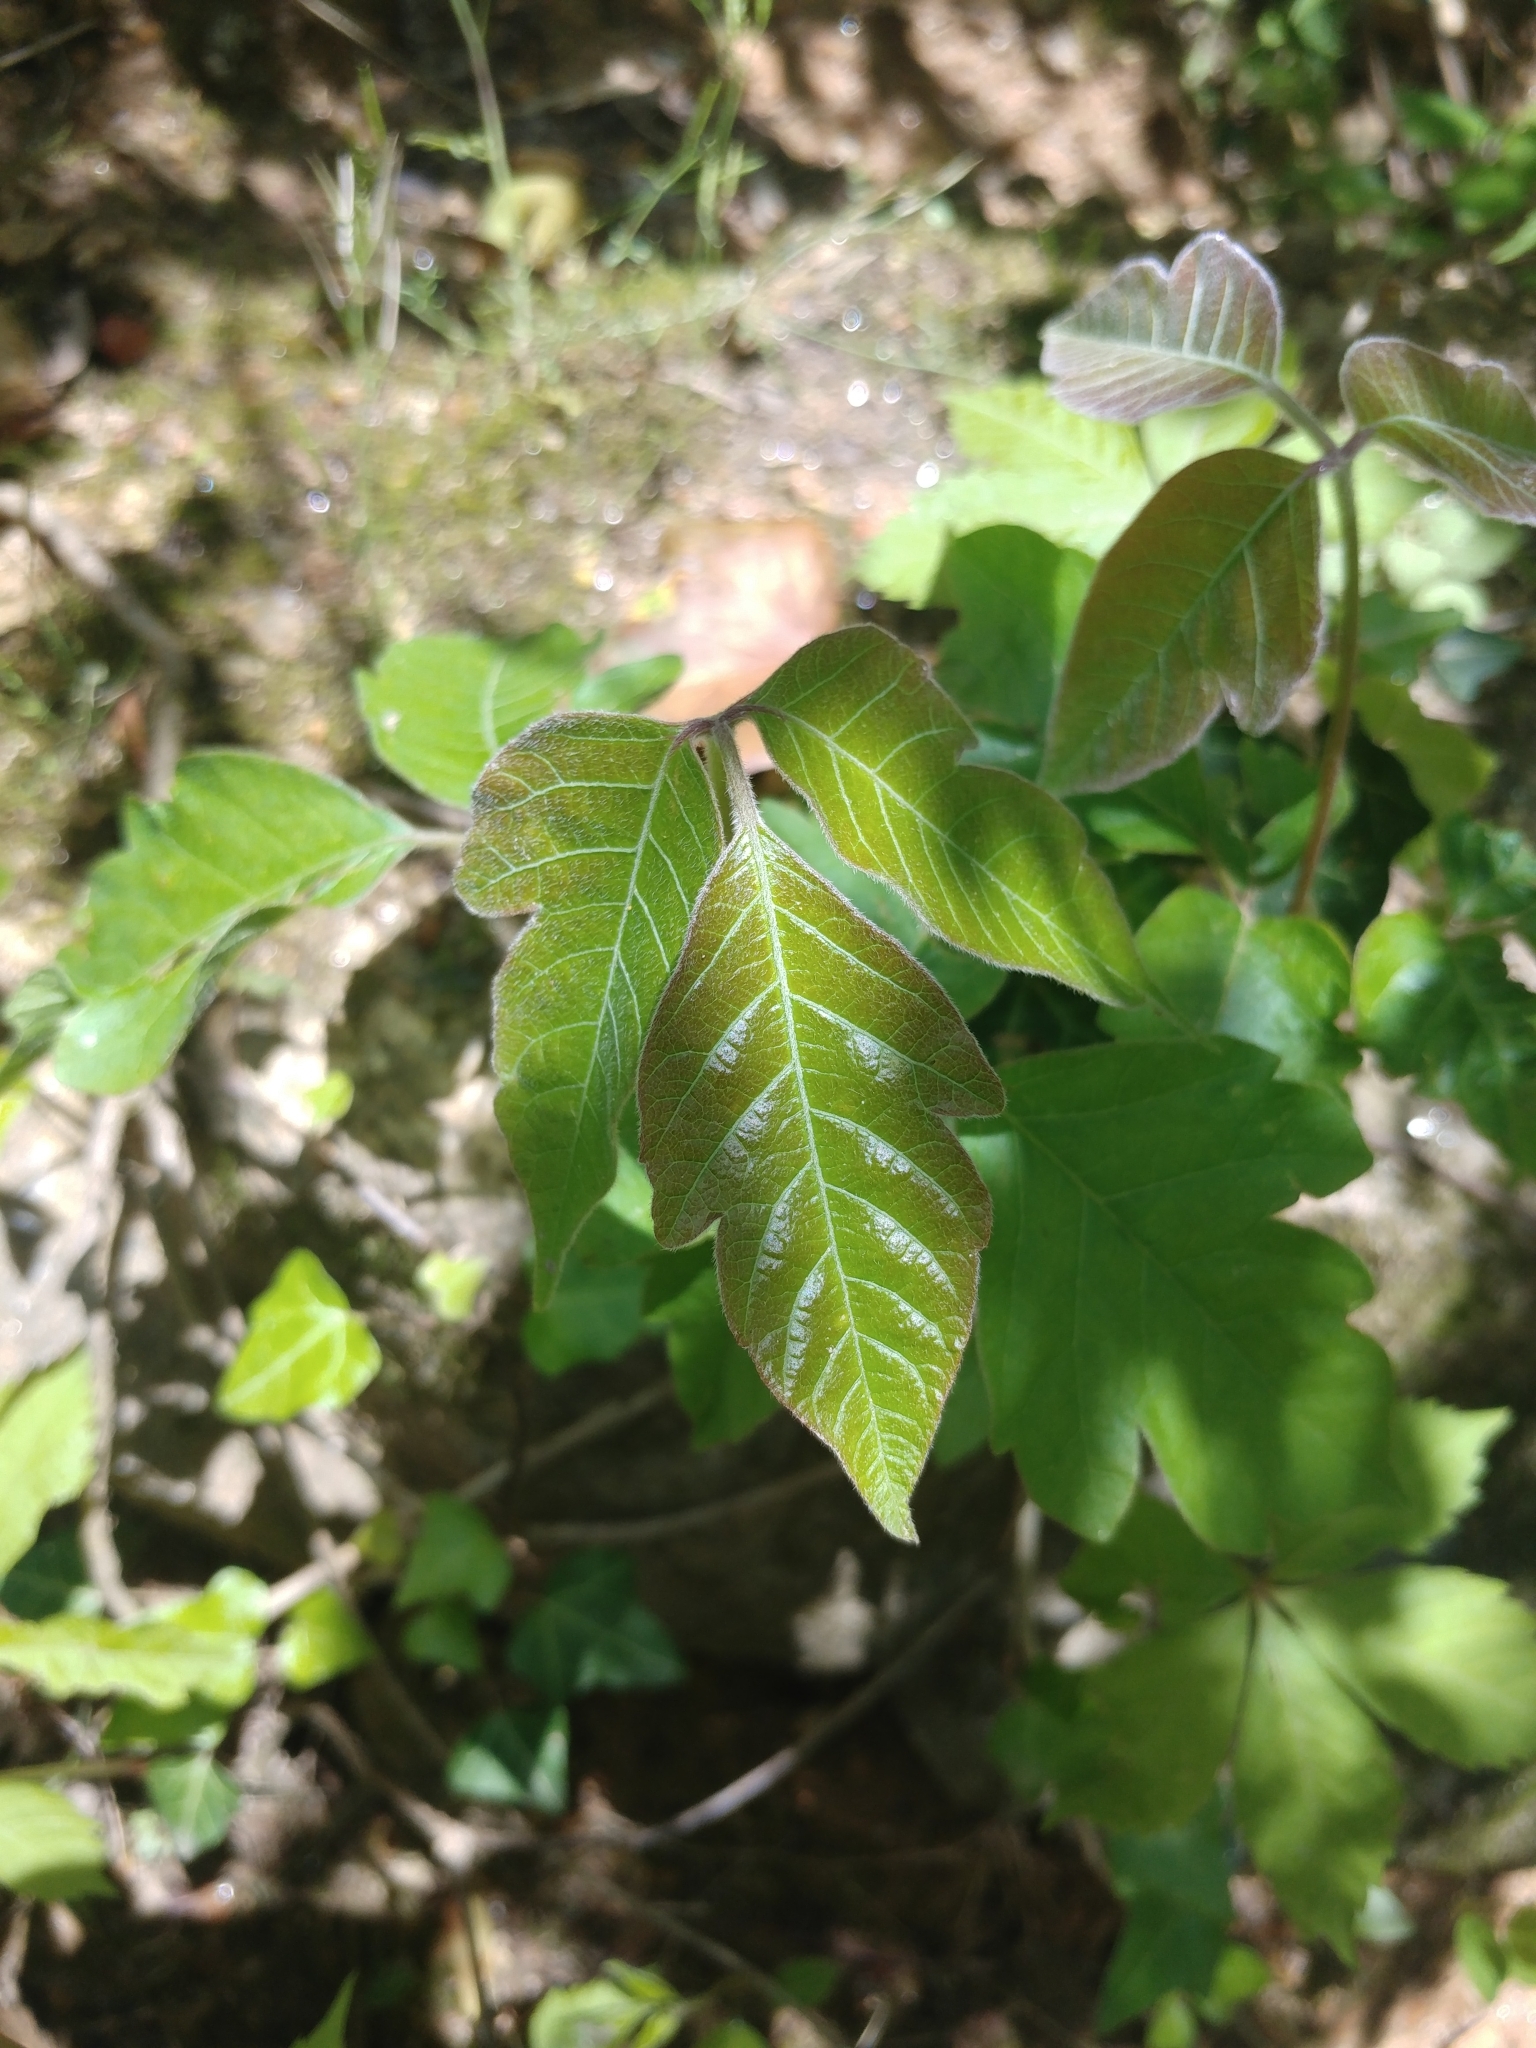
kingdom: Plantae
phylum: Tracheophyta
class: Magnoliopsida
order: Sapindales
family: Anacardiaceae
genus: Toxicodendron
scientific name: Toxicodendron radicans
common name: Poison ivy
